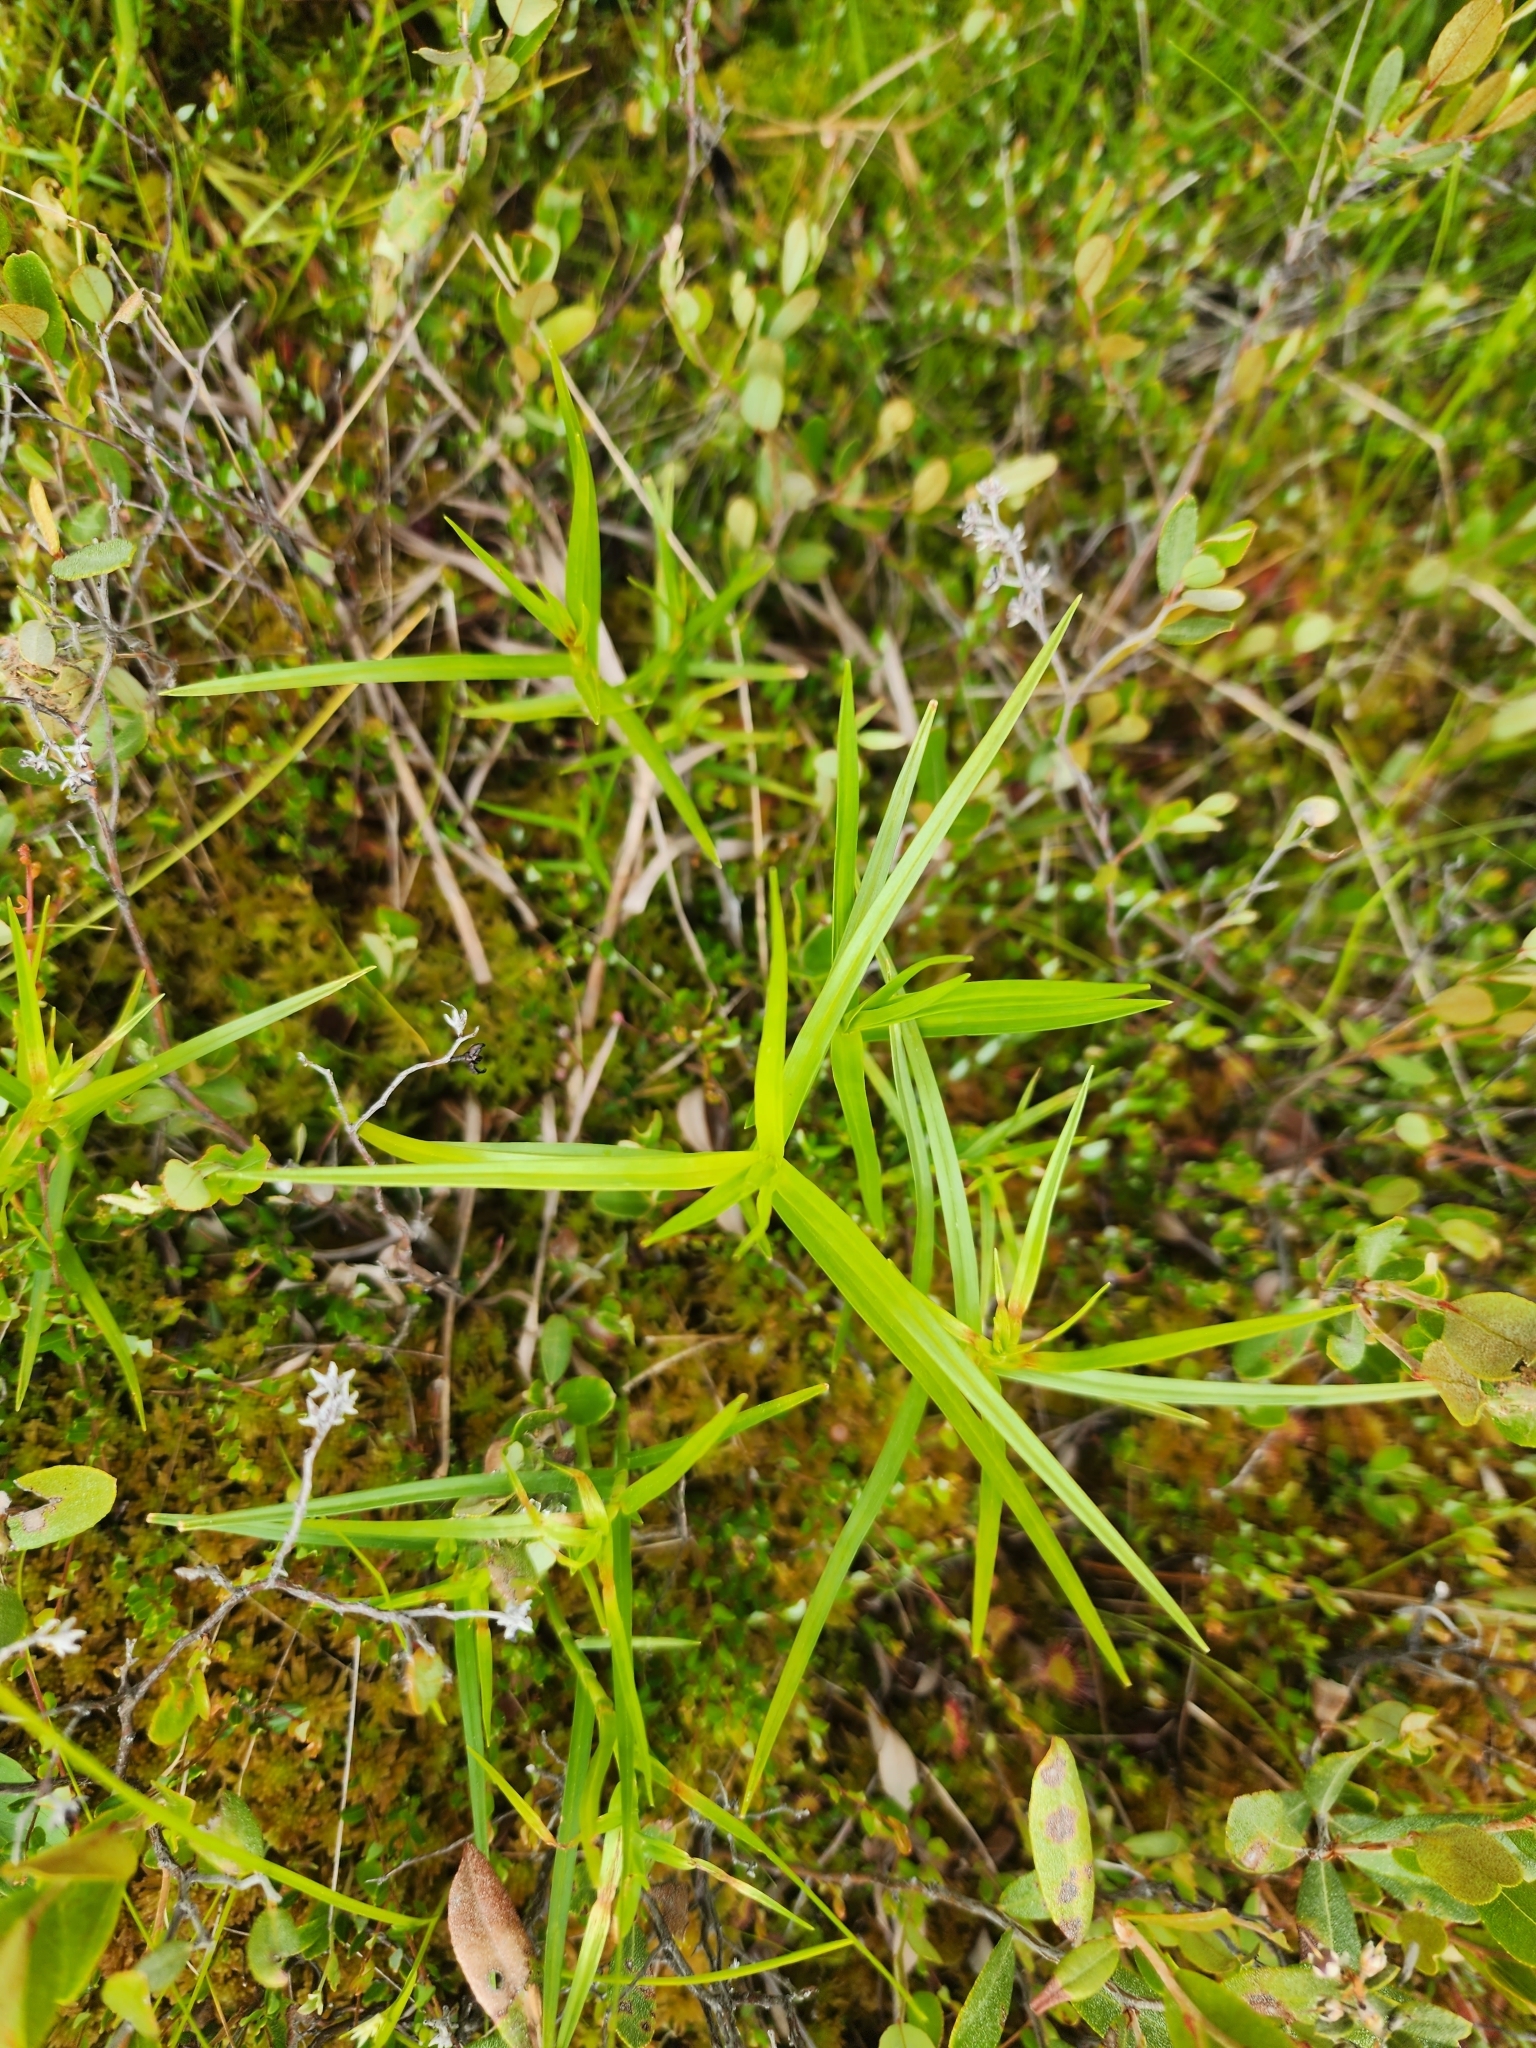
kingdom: Plantae
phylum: Tracheophyta
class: Liliopsida
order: Poales
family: Cyperaceae
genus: Dulichium
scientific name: Dulichium arundinaceum
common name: Three-way sedge
